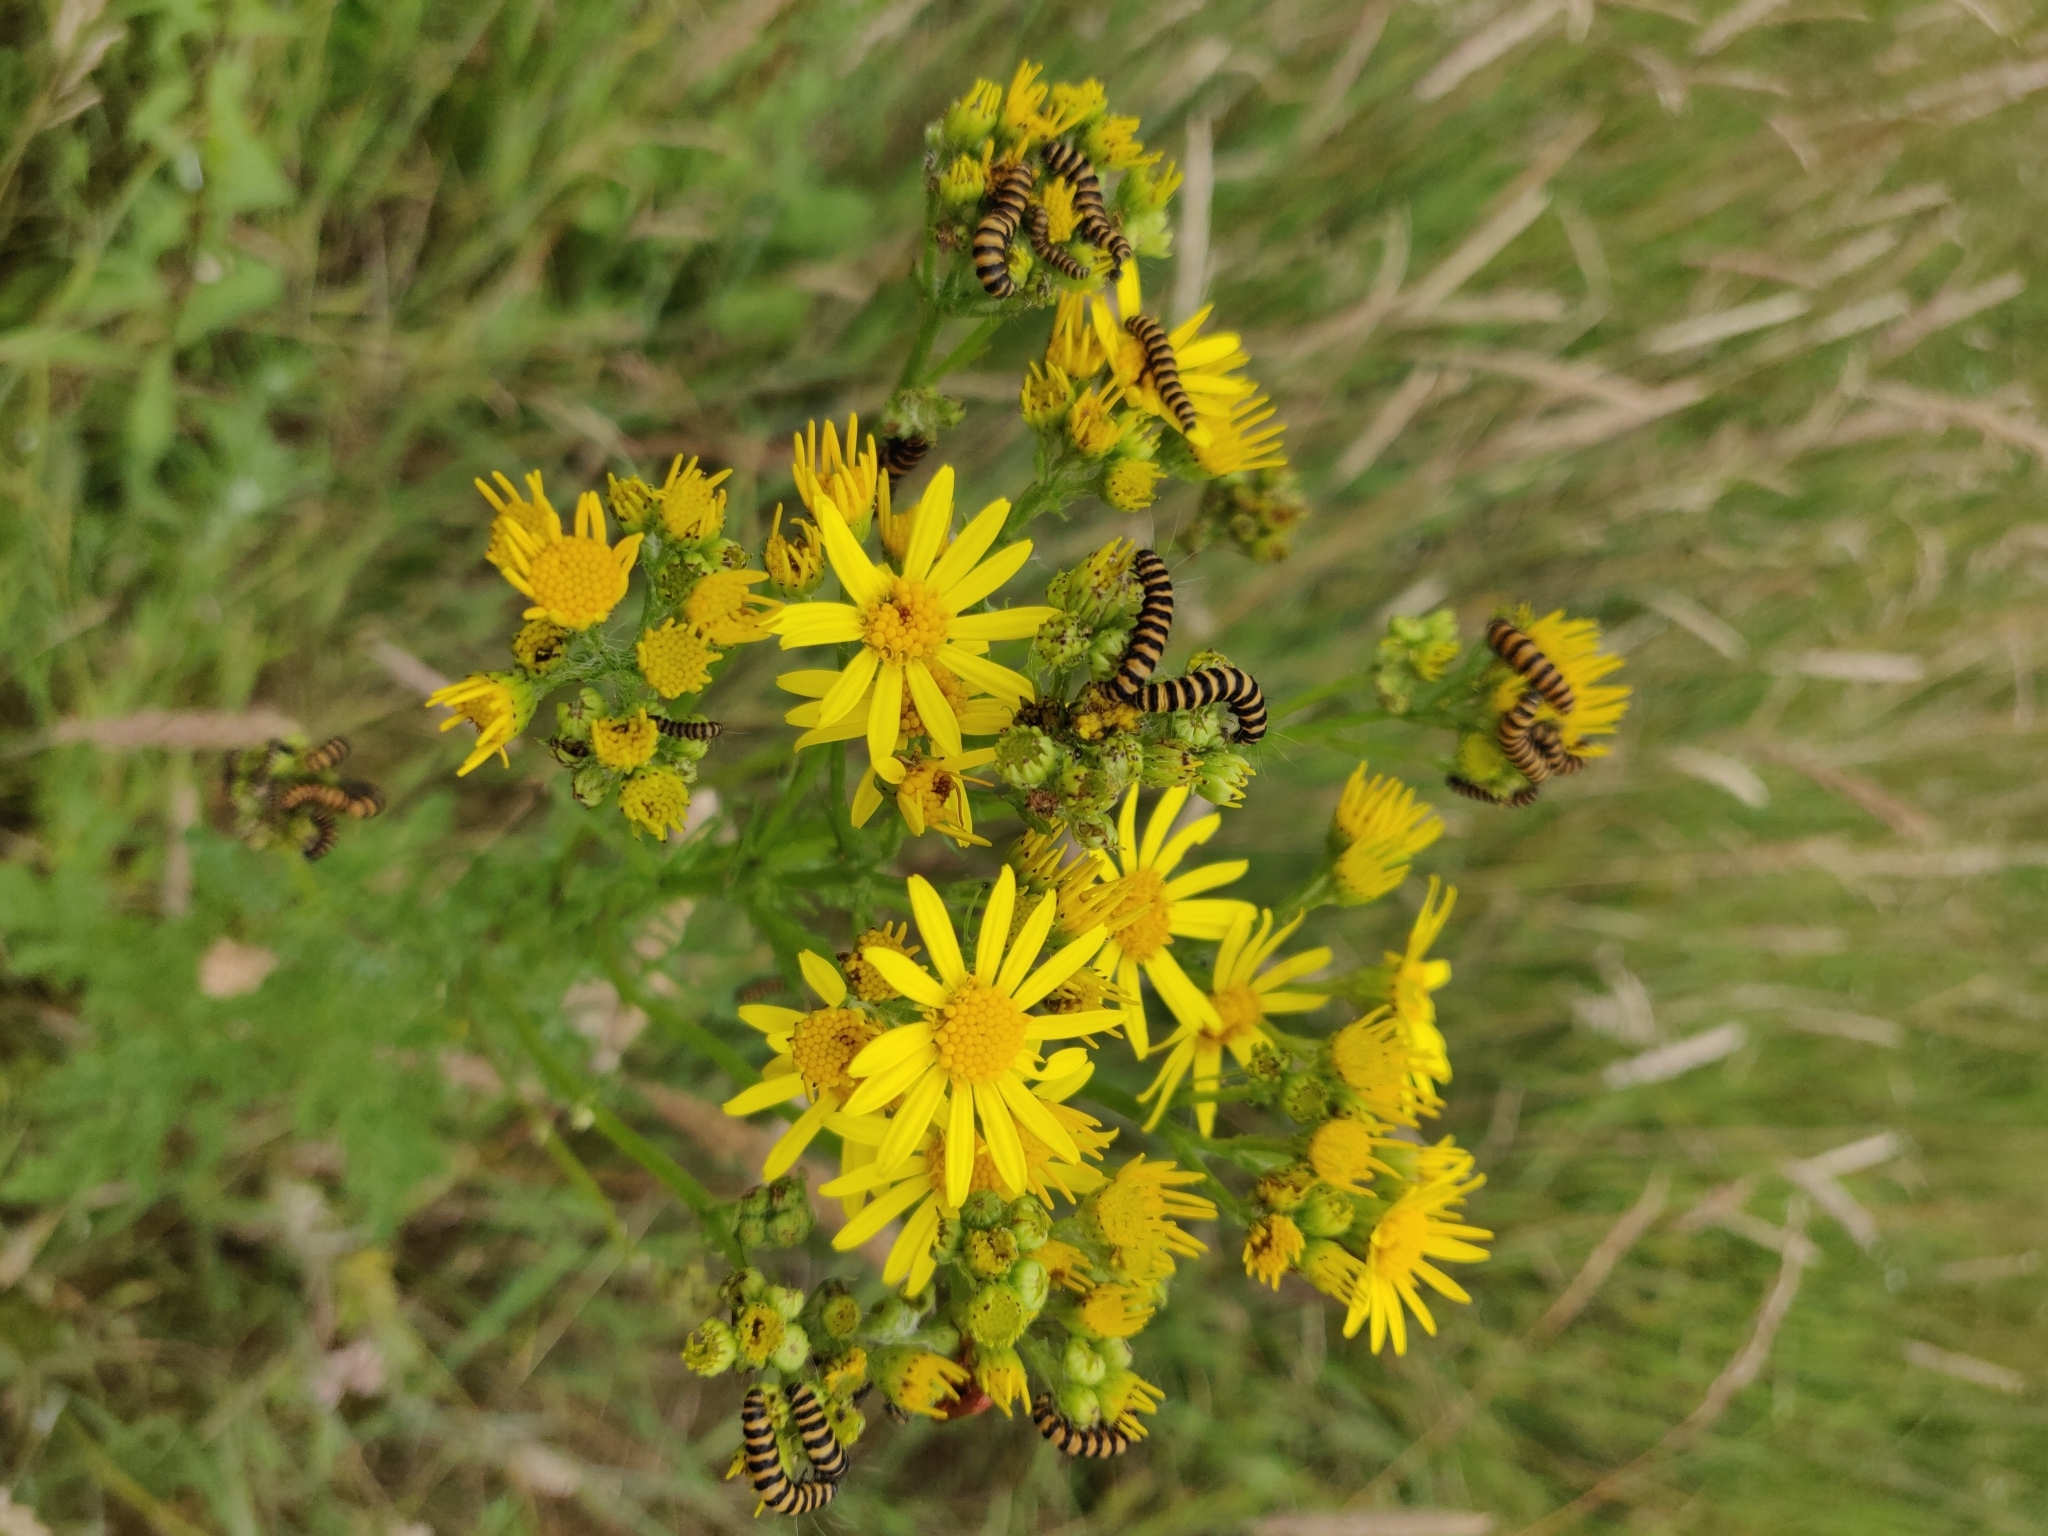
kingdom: Animalia
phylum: Arthropoda
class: Insecta
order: Lepidoptera
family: Erebidae
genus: Tyria
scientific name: Tyria jacobaeae
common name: Cinnabar
